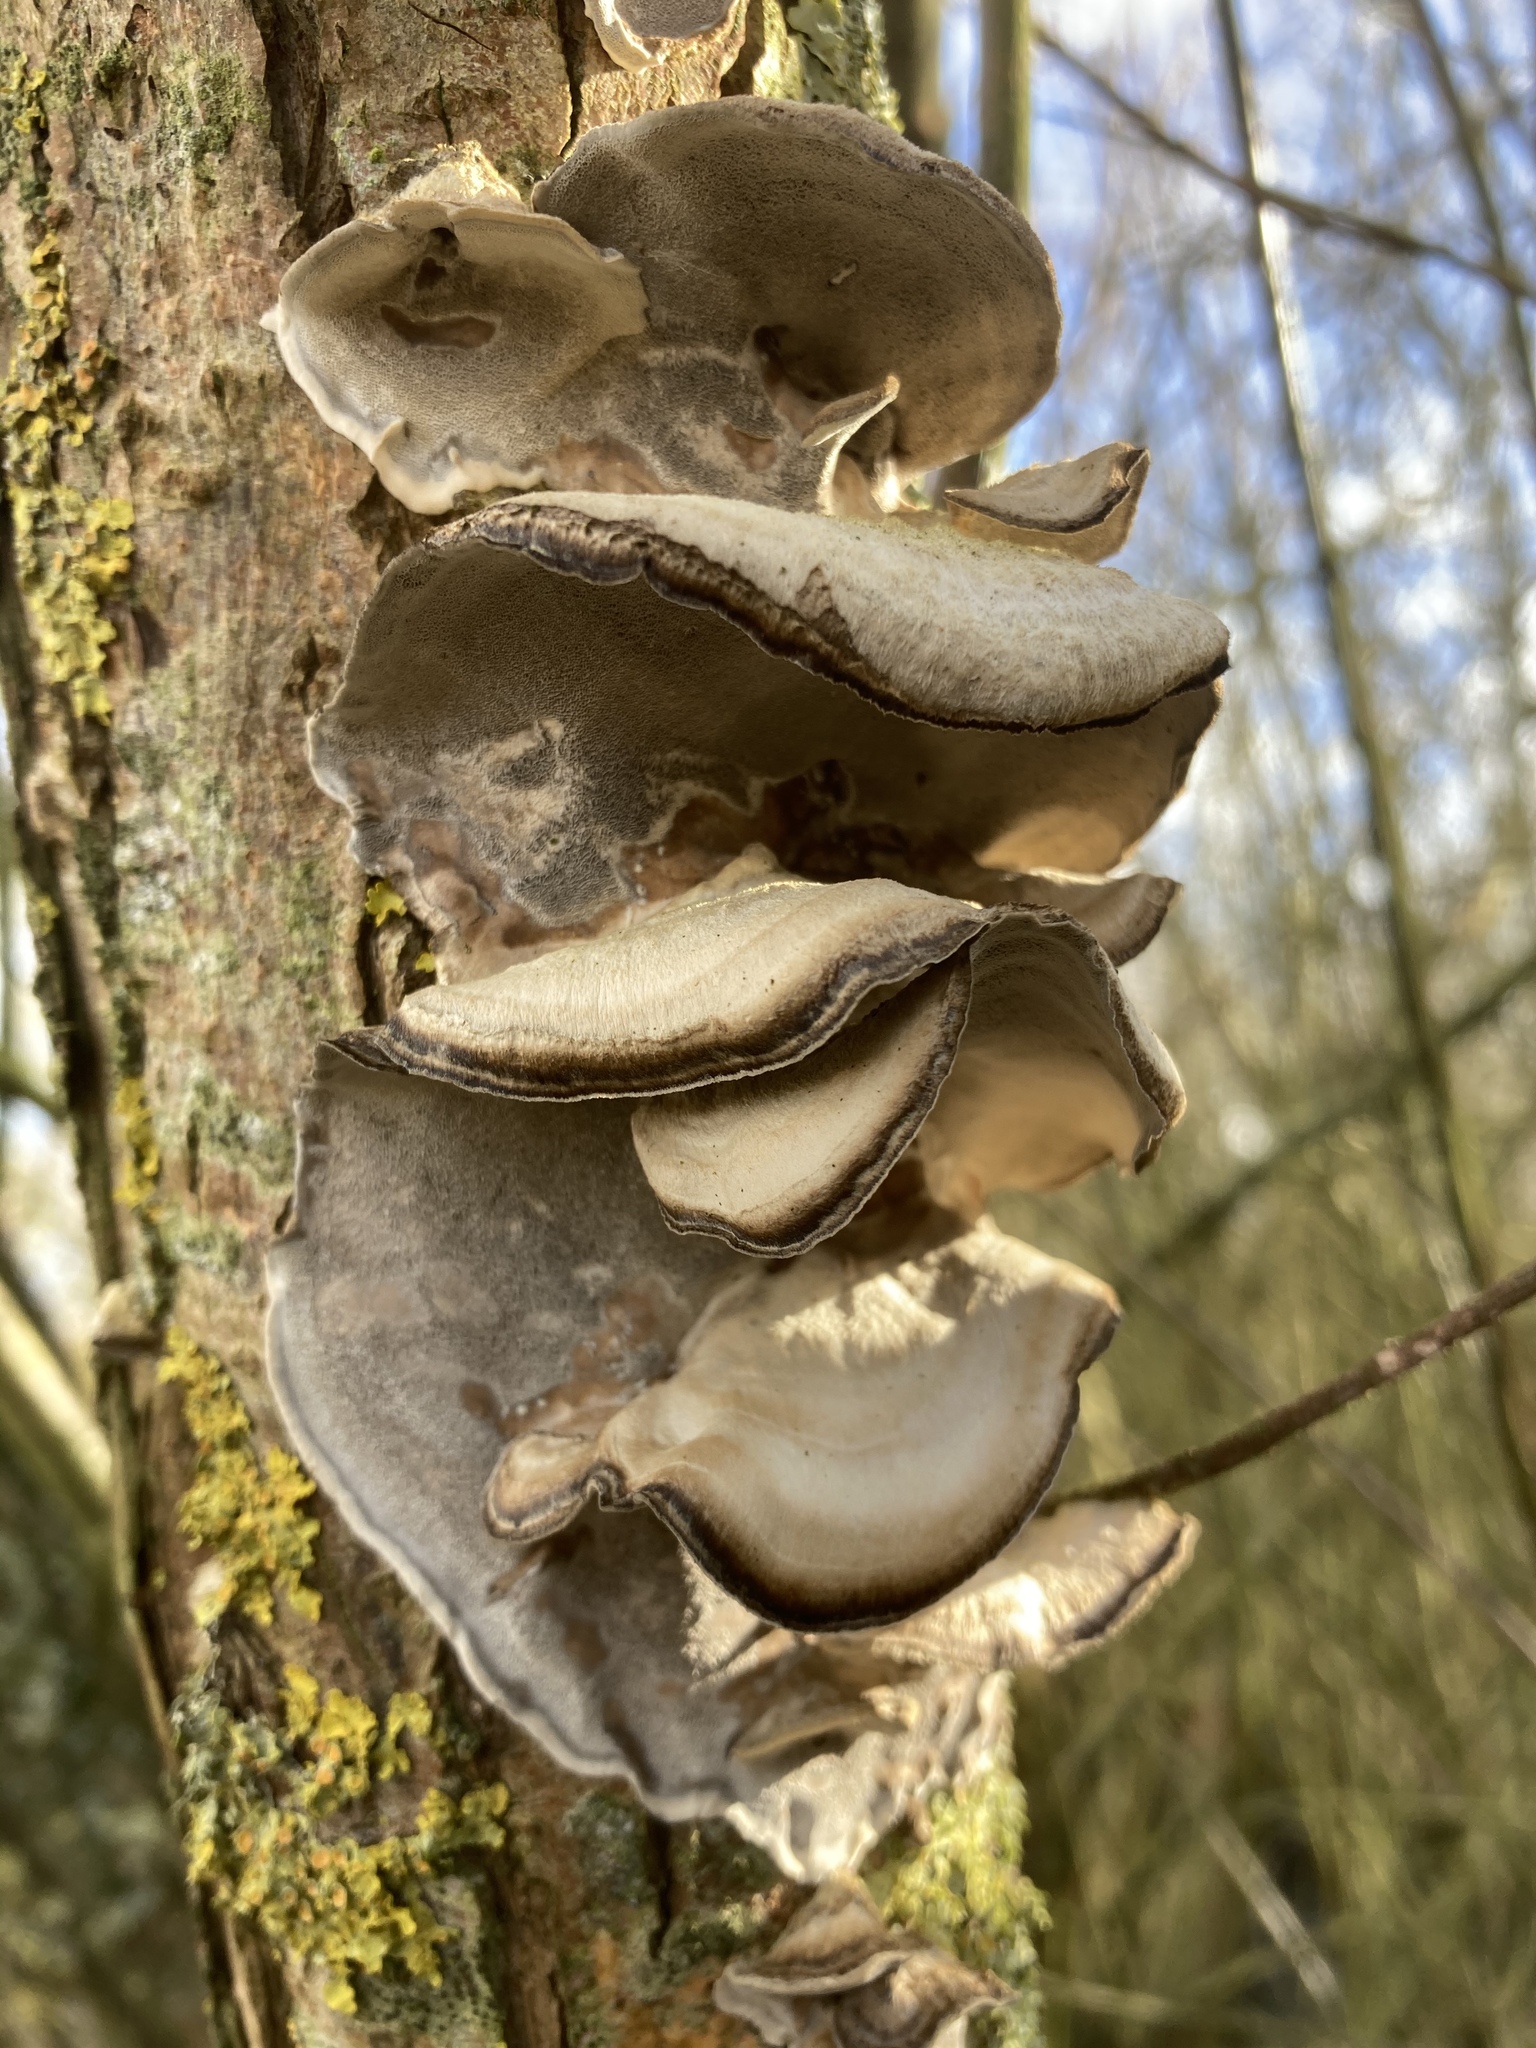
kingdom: Fungi
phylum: Basidiomycota
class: Agaricomycetes
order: Polyporales
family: Phanerochaetaceae
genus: Bjerkandera
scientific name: Bjerkandera adusta
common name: Smoky bracket
